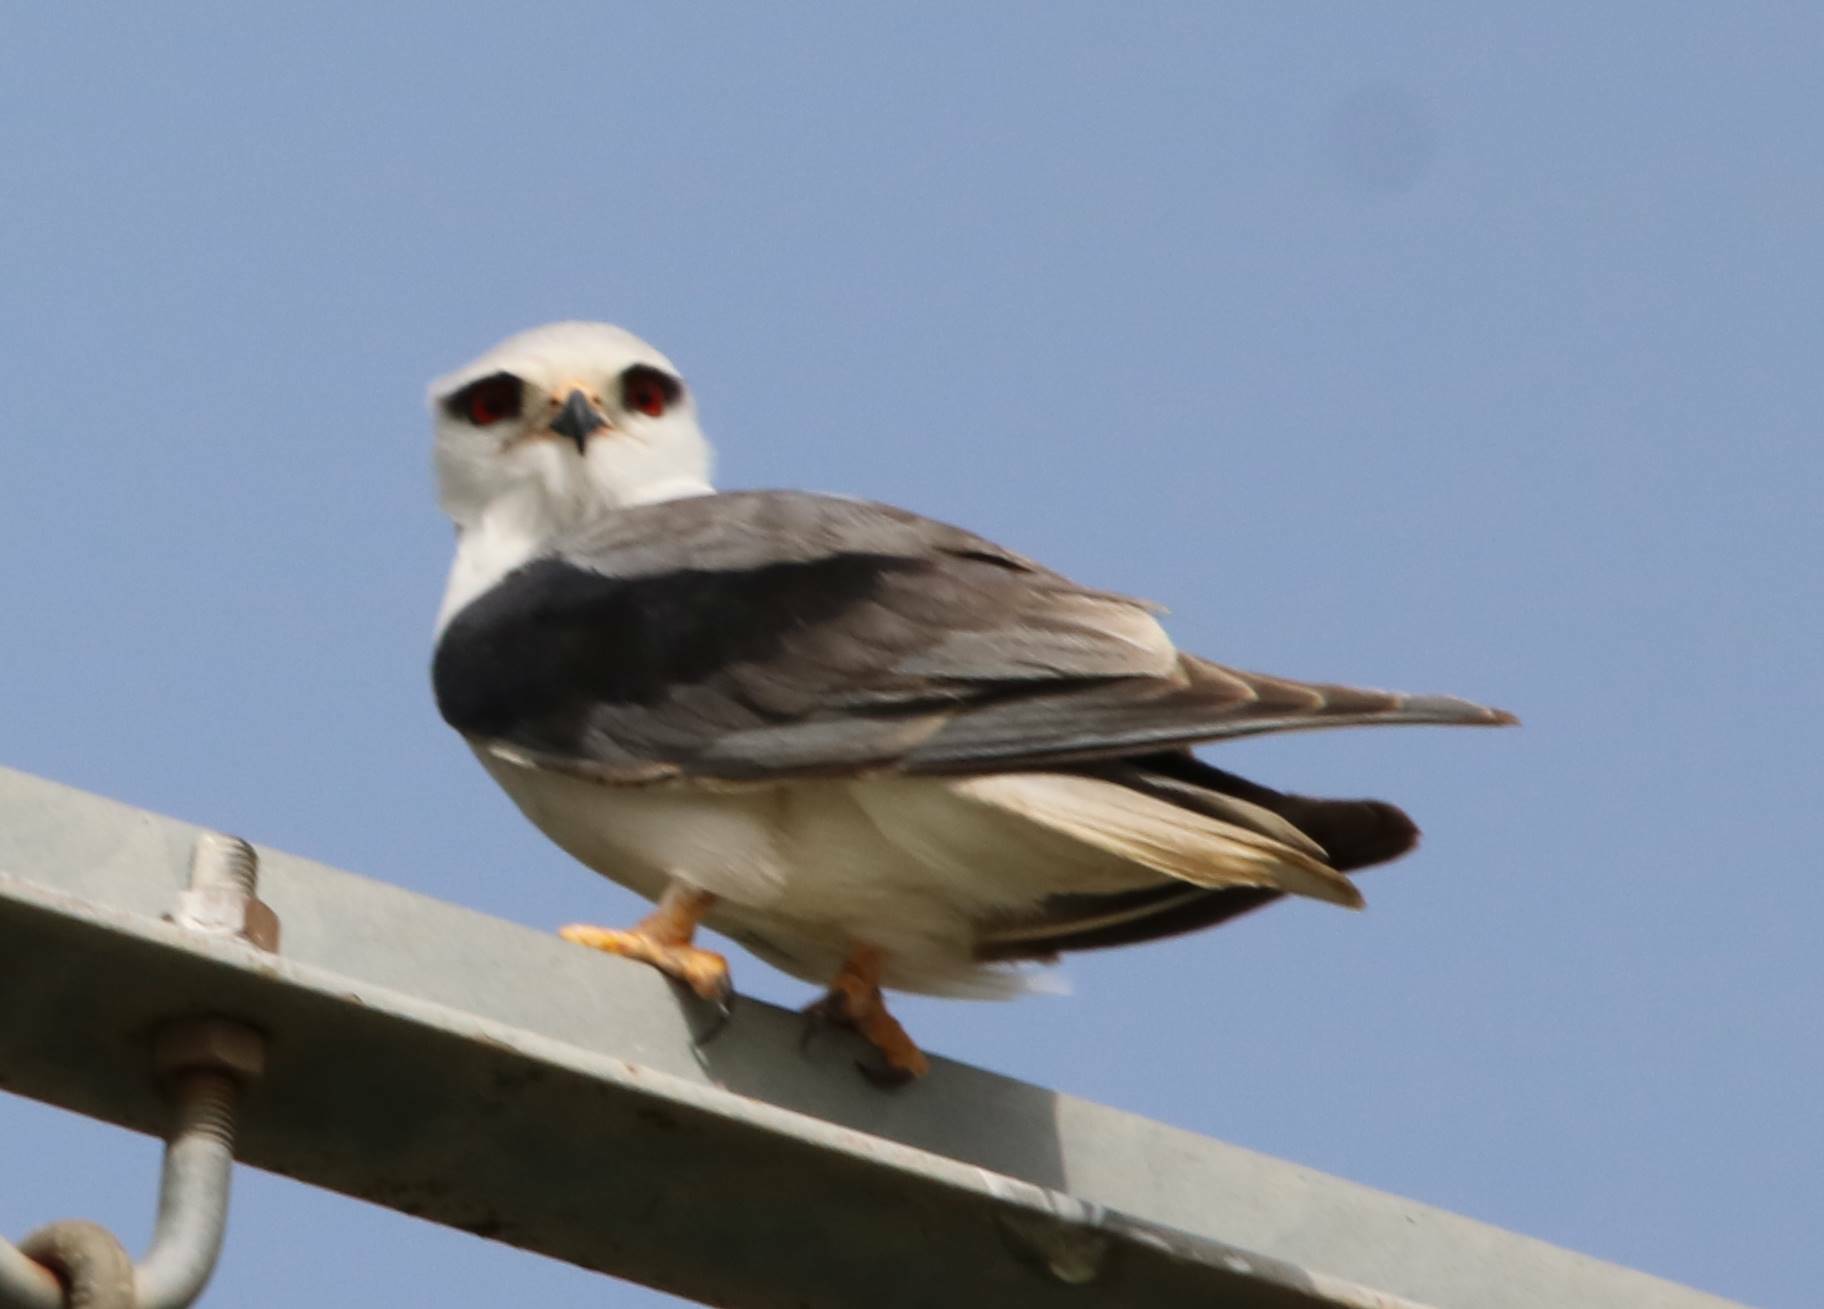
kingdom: Animalia
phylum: Chordata
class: Aves
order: Accipitriformes
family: Accipitridae
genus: Elanus
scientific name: Elanus caeruleus
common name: Black-winged kite
